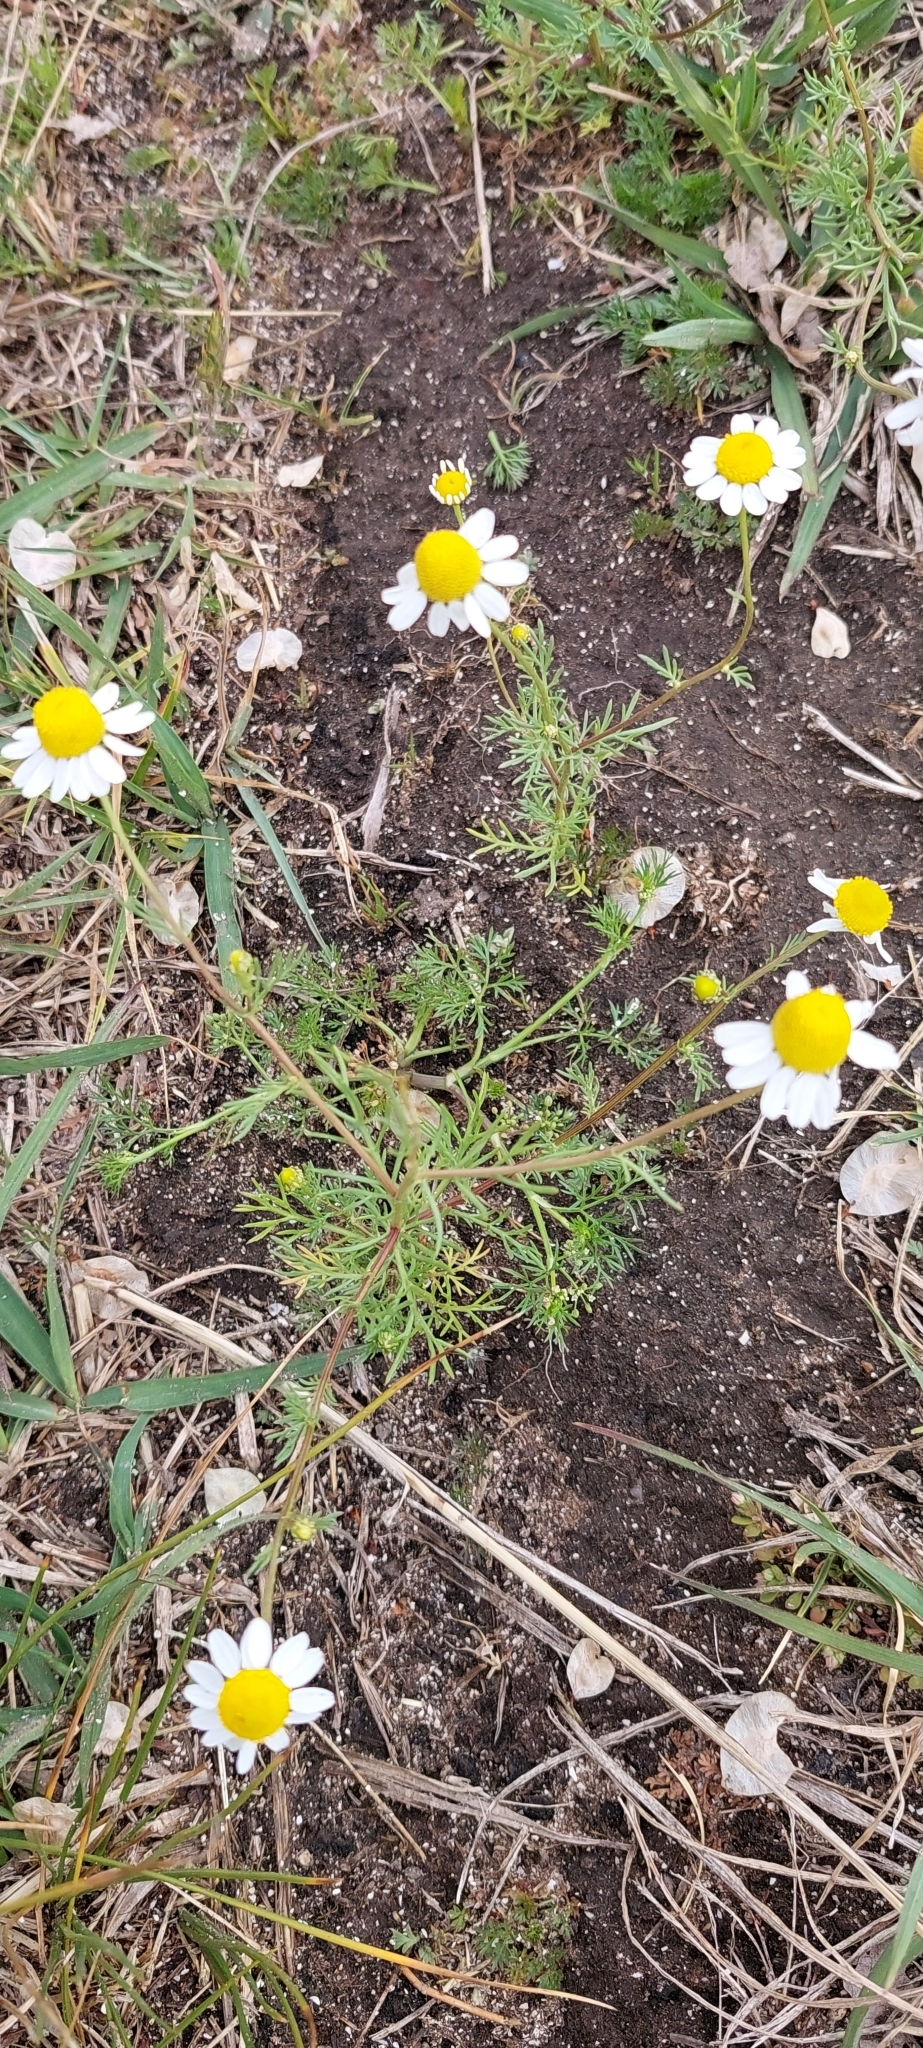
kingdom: Plantae
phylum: Tracheophyta
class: Magnoliopsida
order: Asterales
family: Asteraceae
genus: Matricaria
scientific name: Matricaria chamomilla
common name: Scented mayweed
